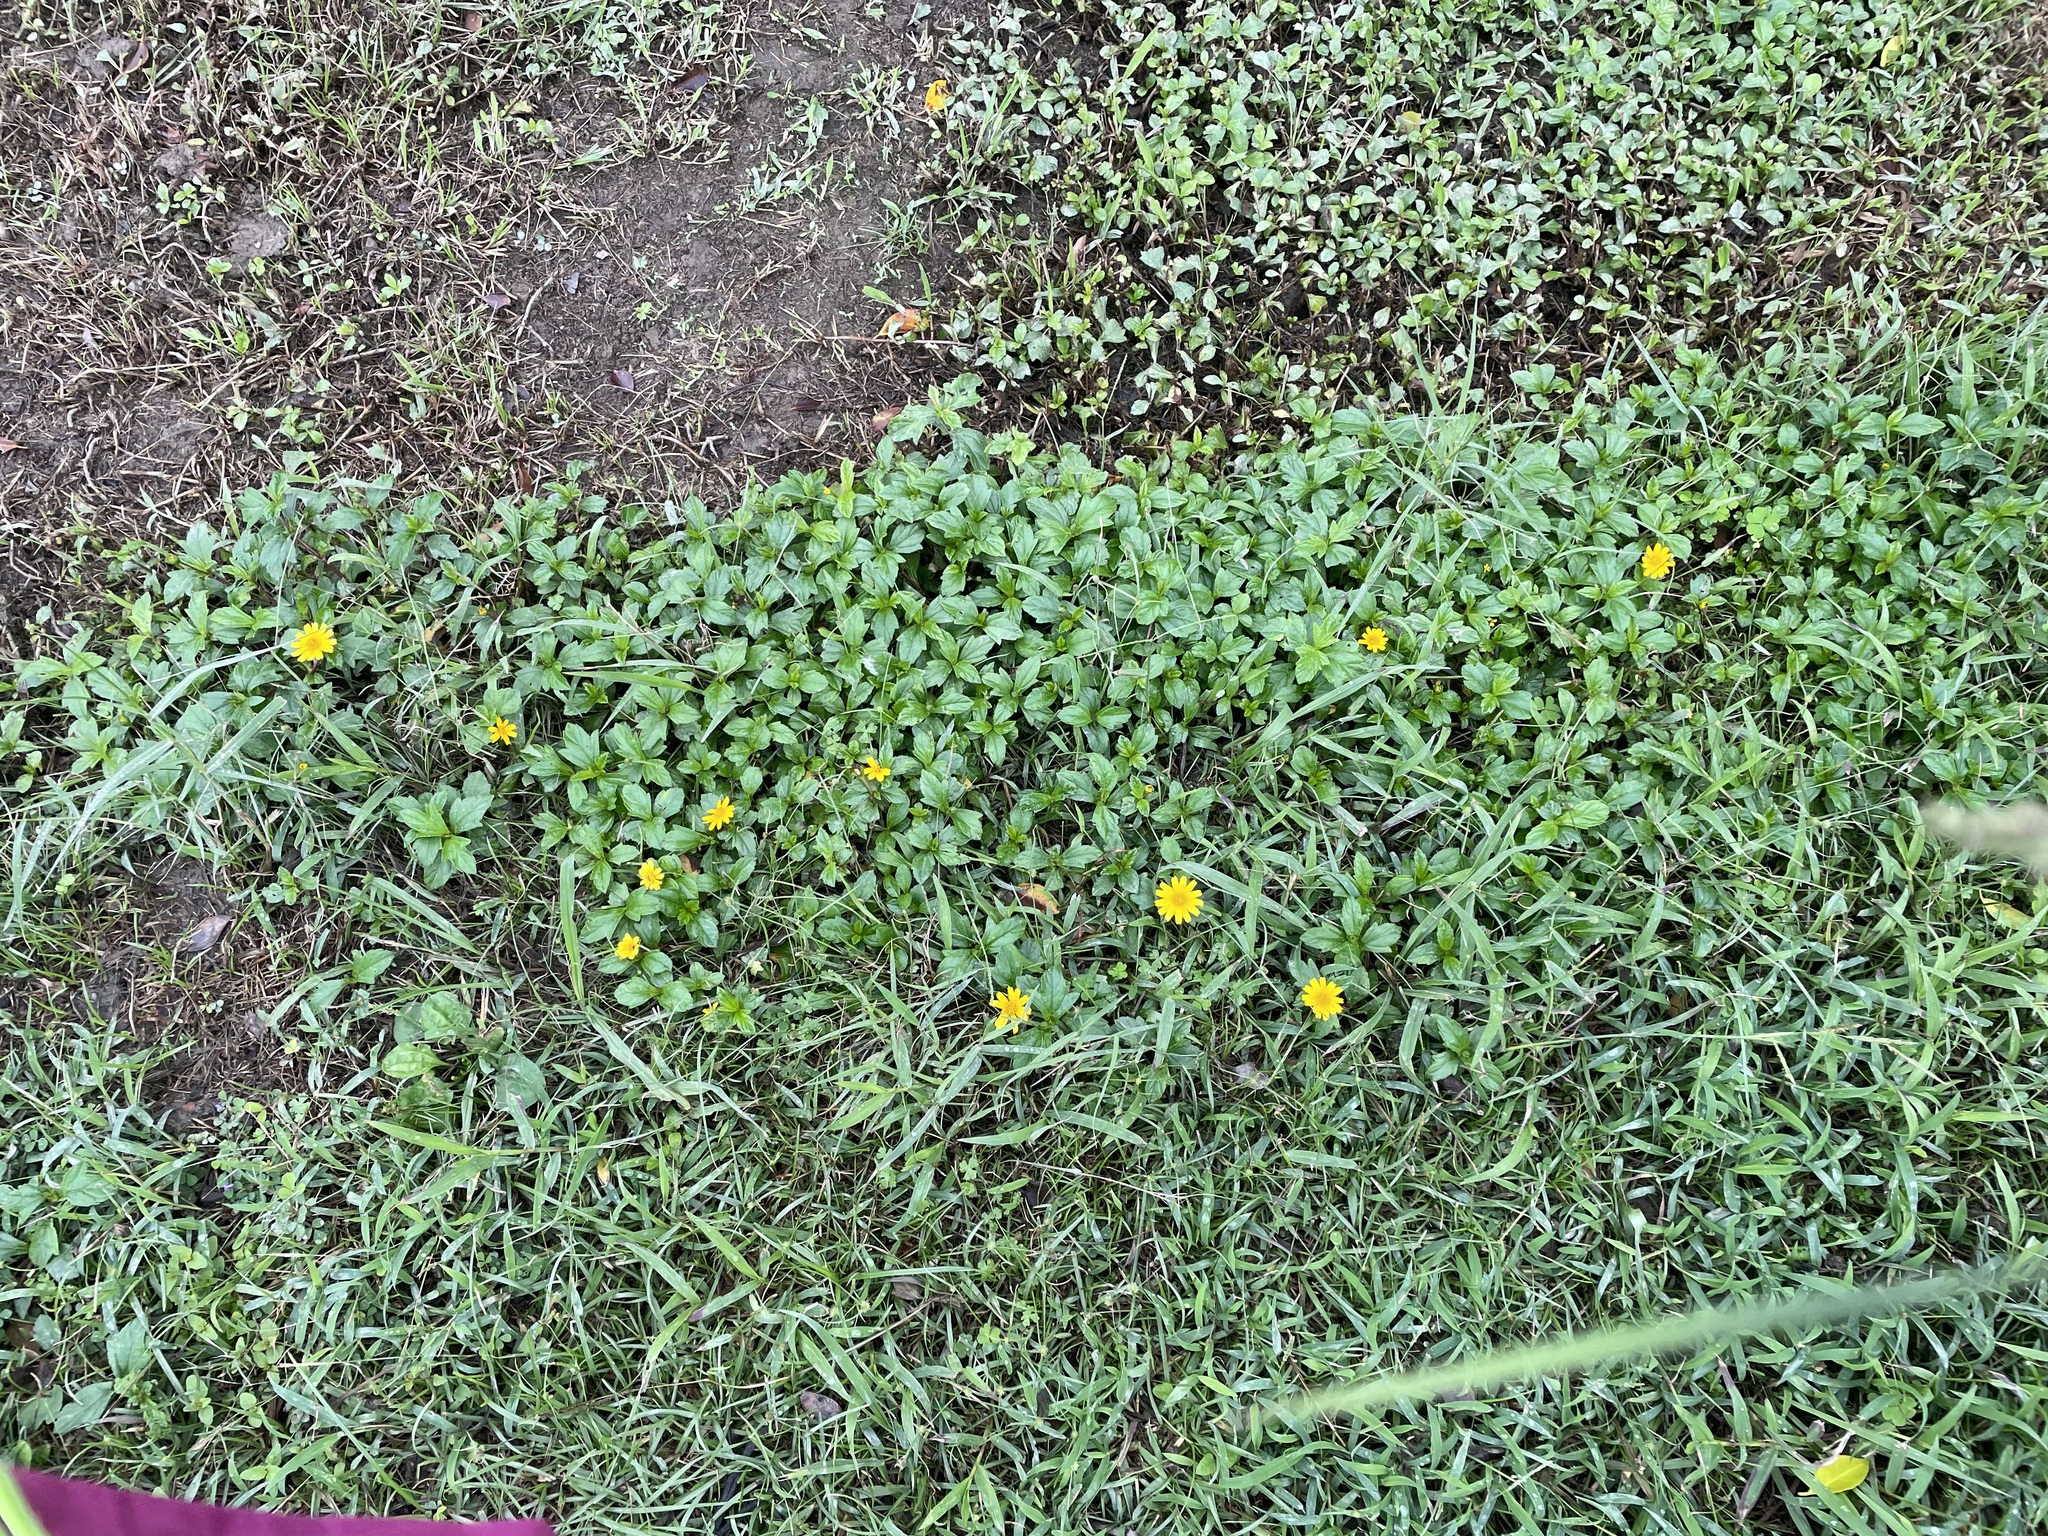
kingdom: Plantae
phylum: Tracheophyta
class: Magnoliopsida
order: Asterales
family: Asteraceae
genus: Sphagneticola
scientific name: Sphagneticola trilobata
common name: Bay biscayne creeping-oxeye
